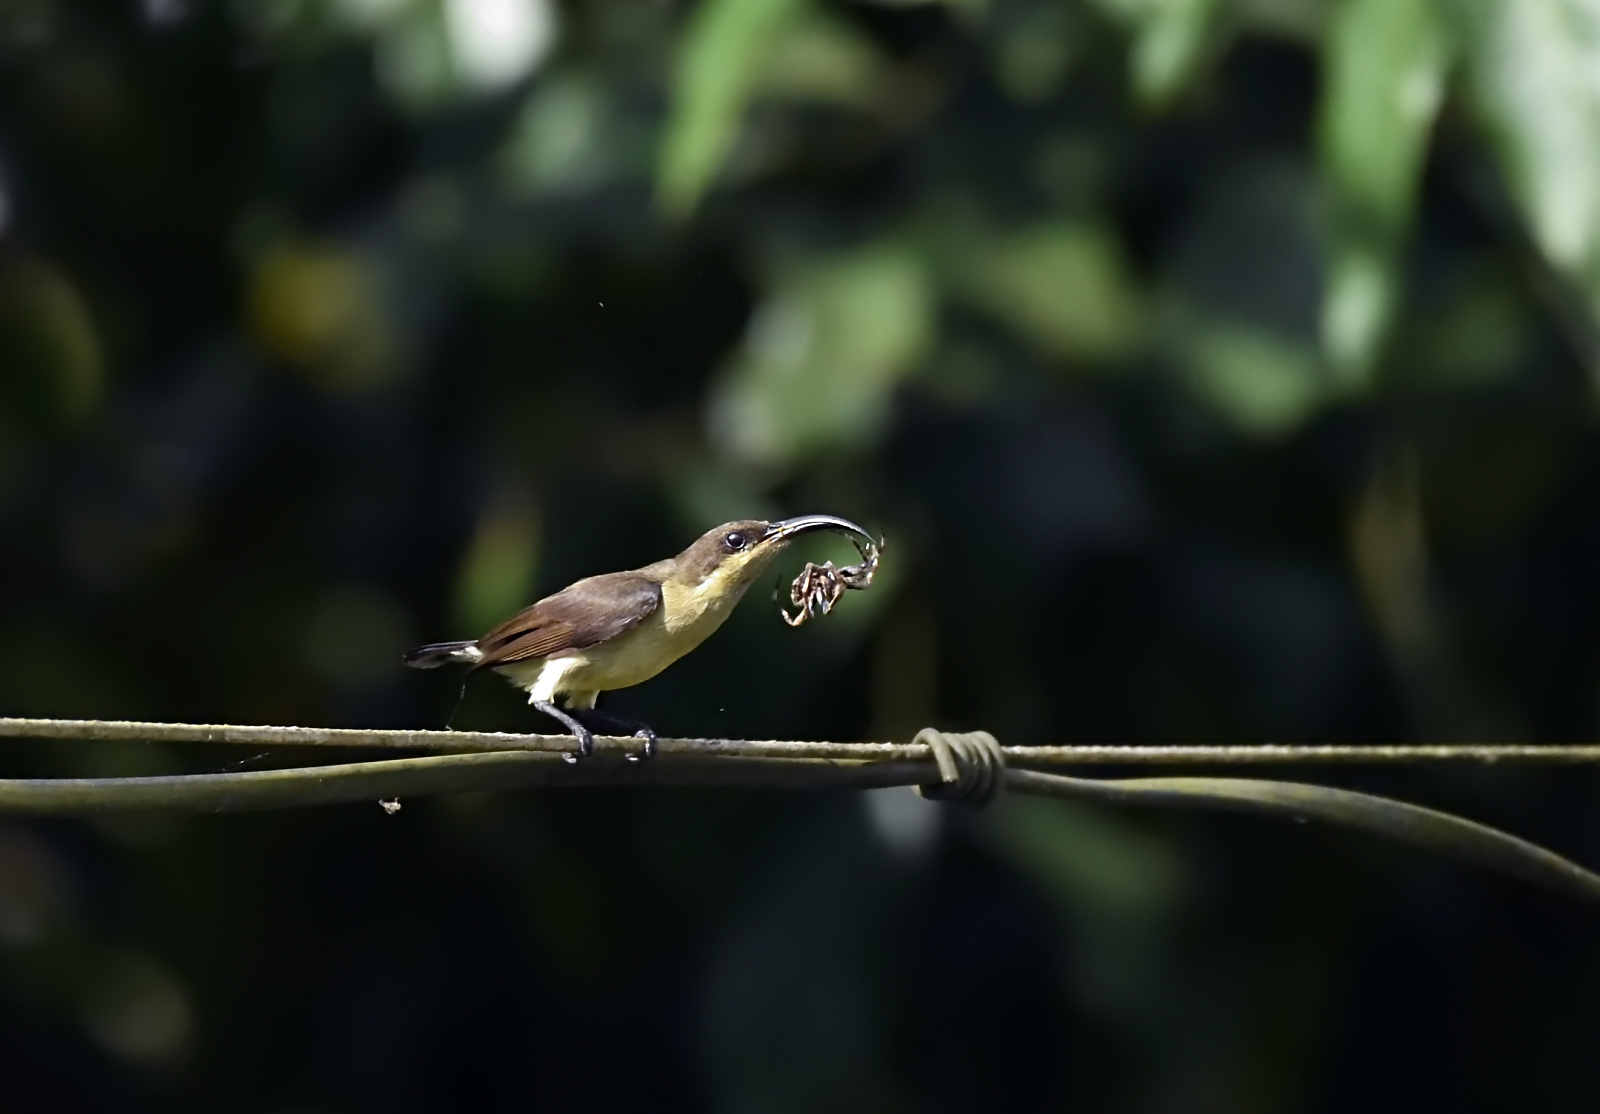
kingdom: Animalia
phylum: Chordata
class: Aves
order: Passeriformes
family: Nectariniidae
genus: Cinnyris
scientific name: Cinnyris lotenius
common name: Loten's sunbird
